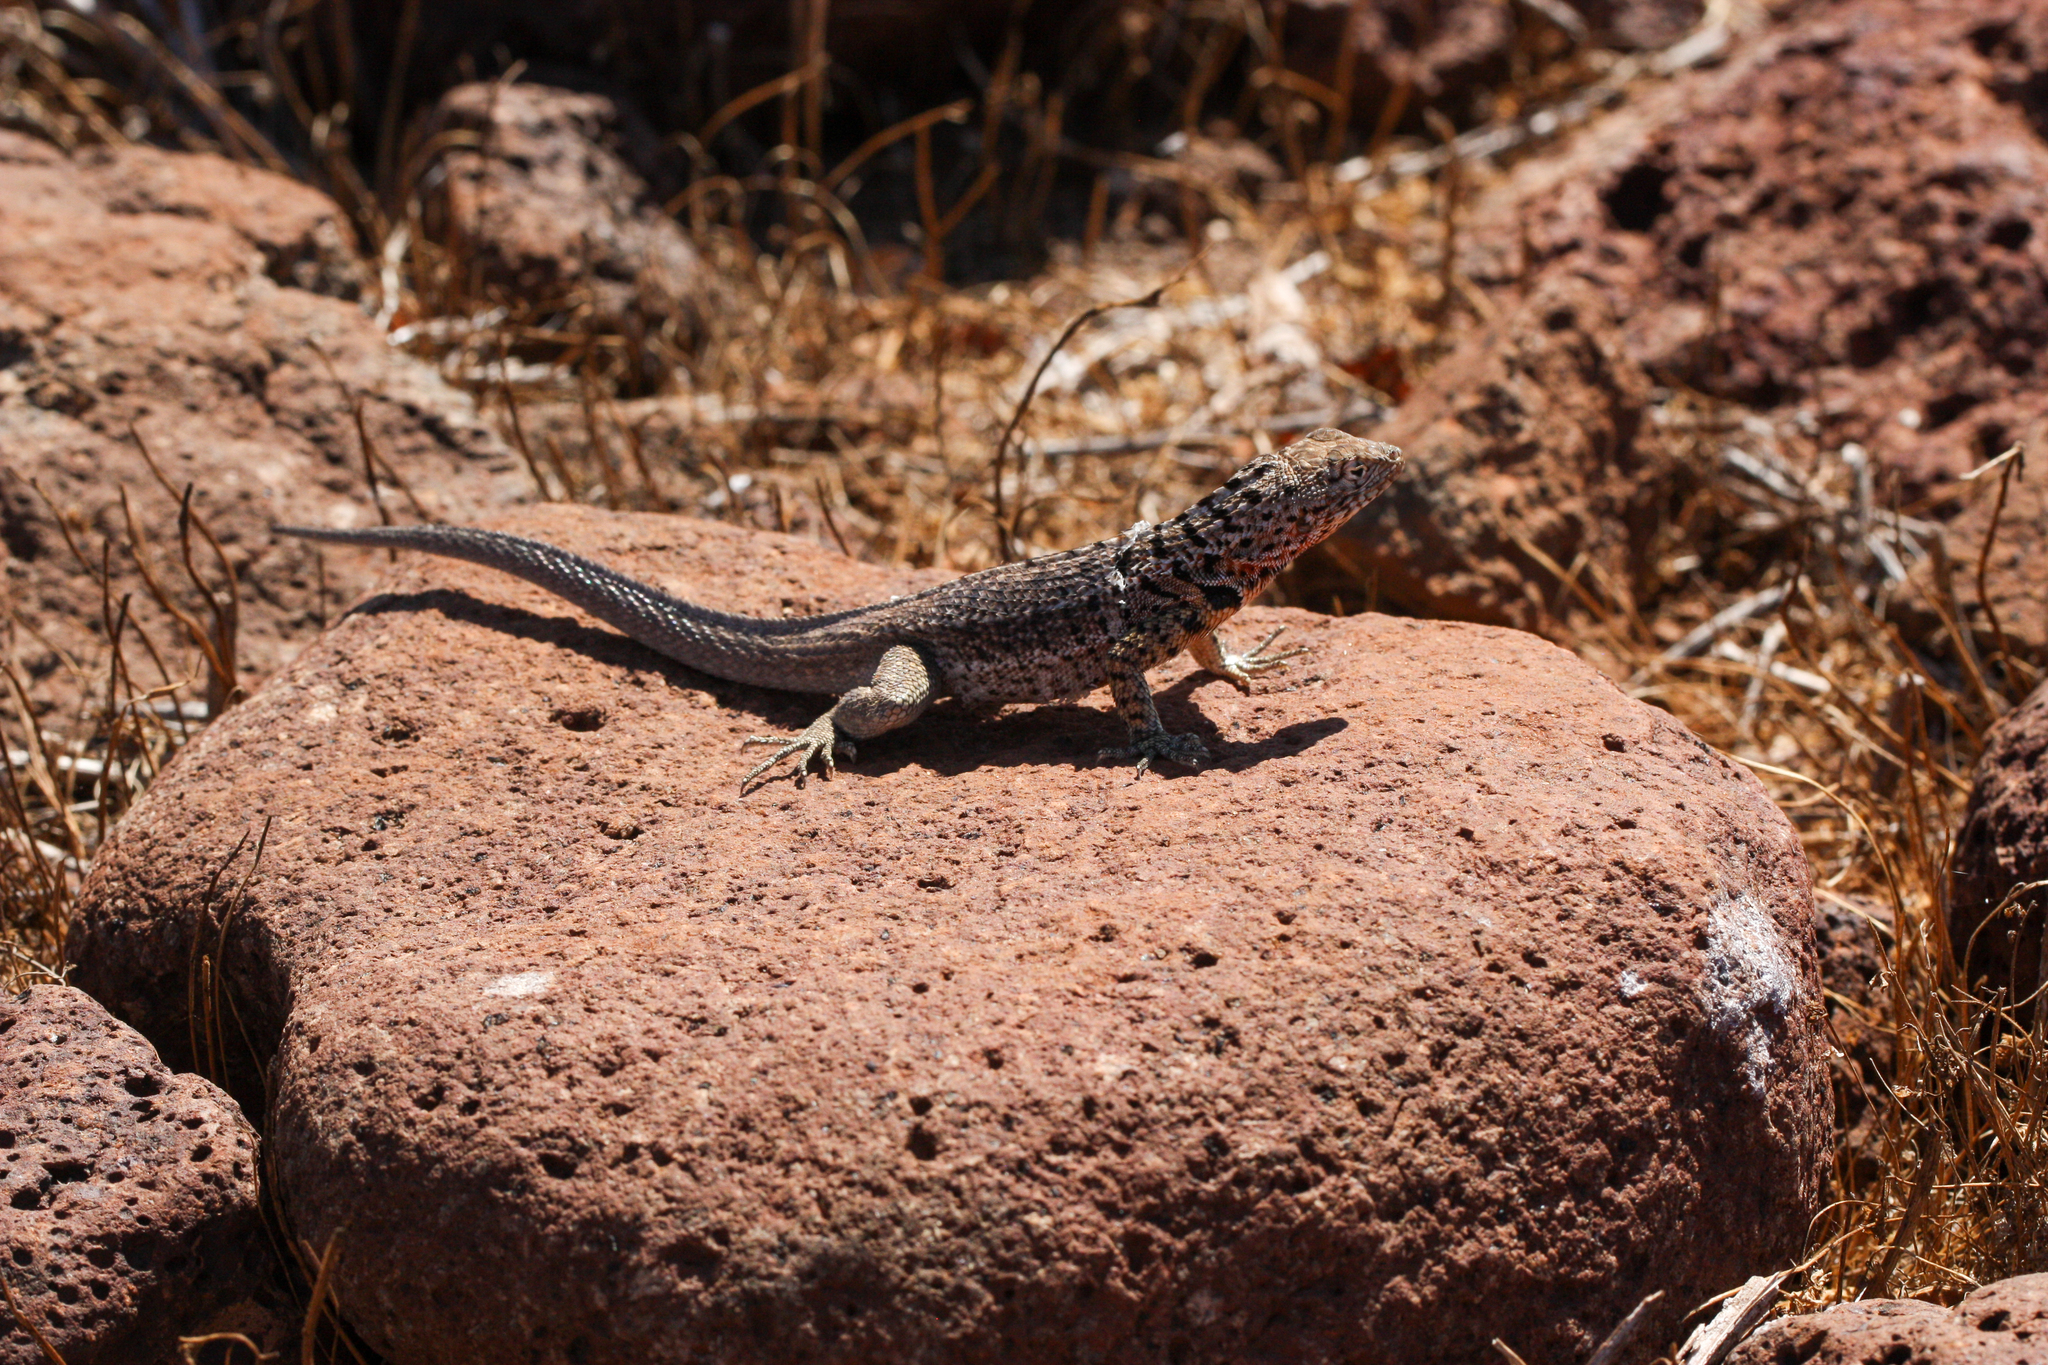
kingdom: Animalia
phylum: Chordata
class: Squamata
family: Tropiduridae
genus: Microlophus
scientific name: Microlophus indefatigabilis
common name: Galapagos lava lizard
